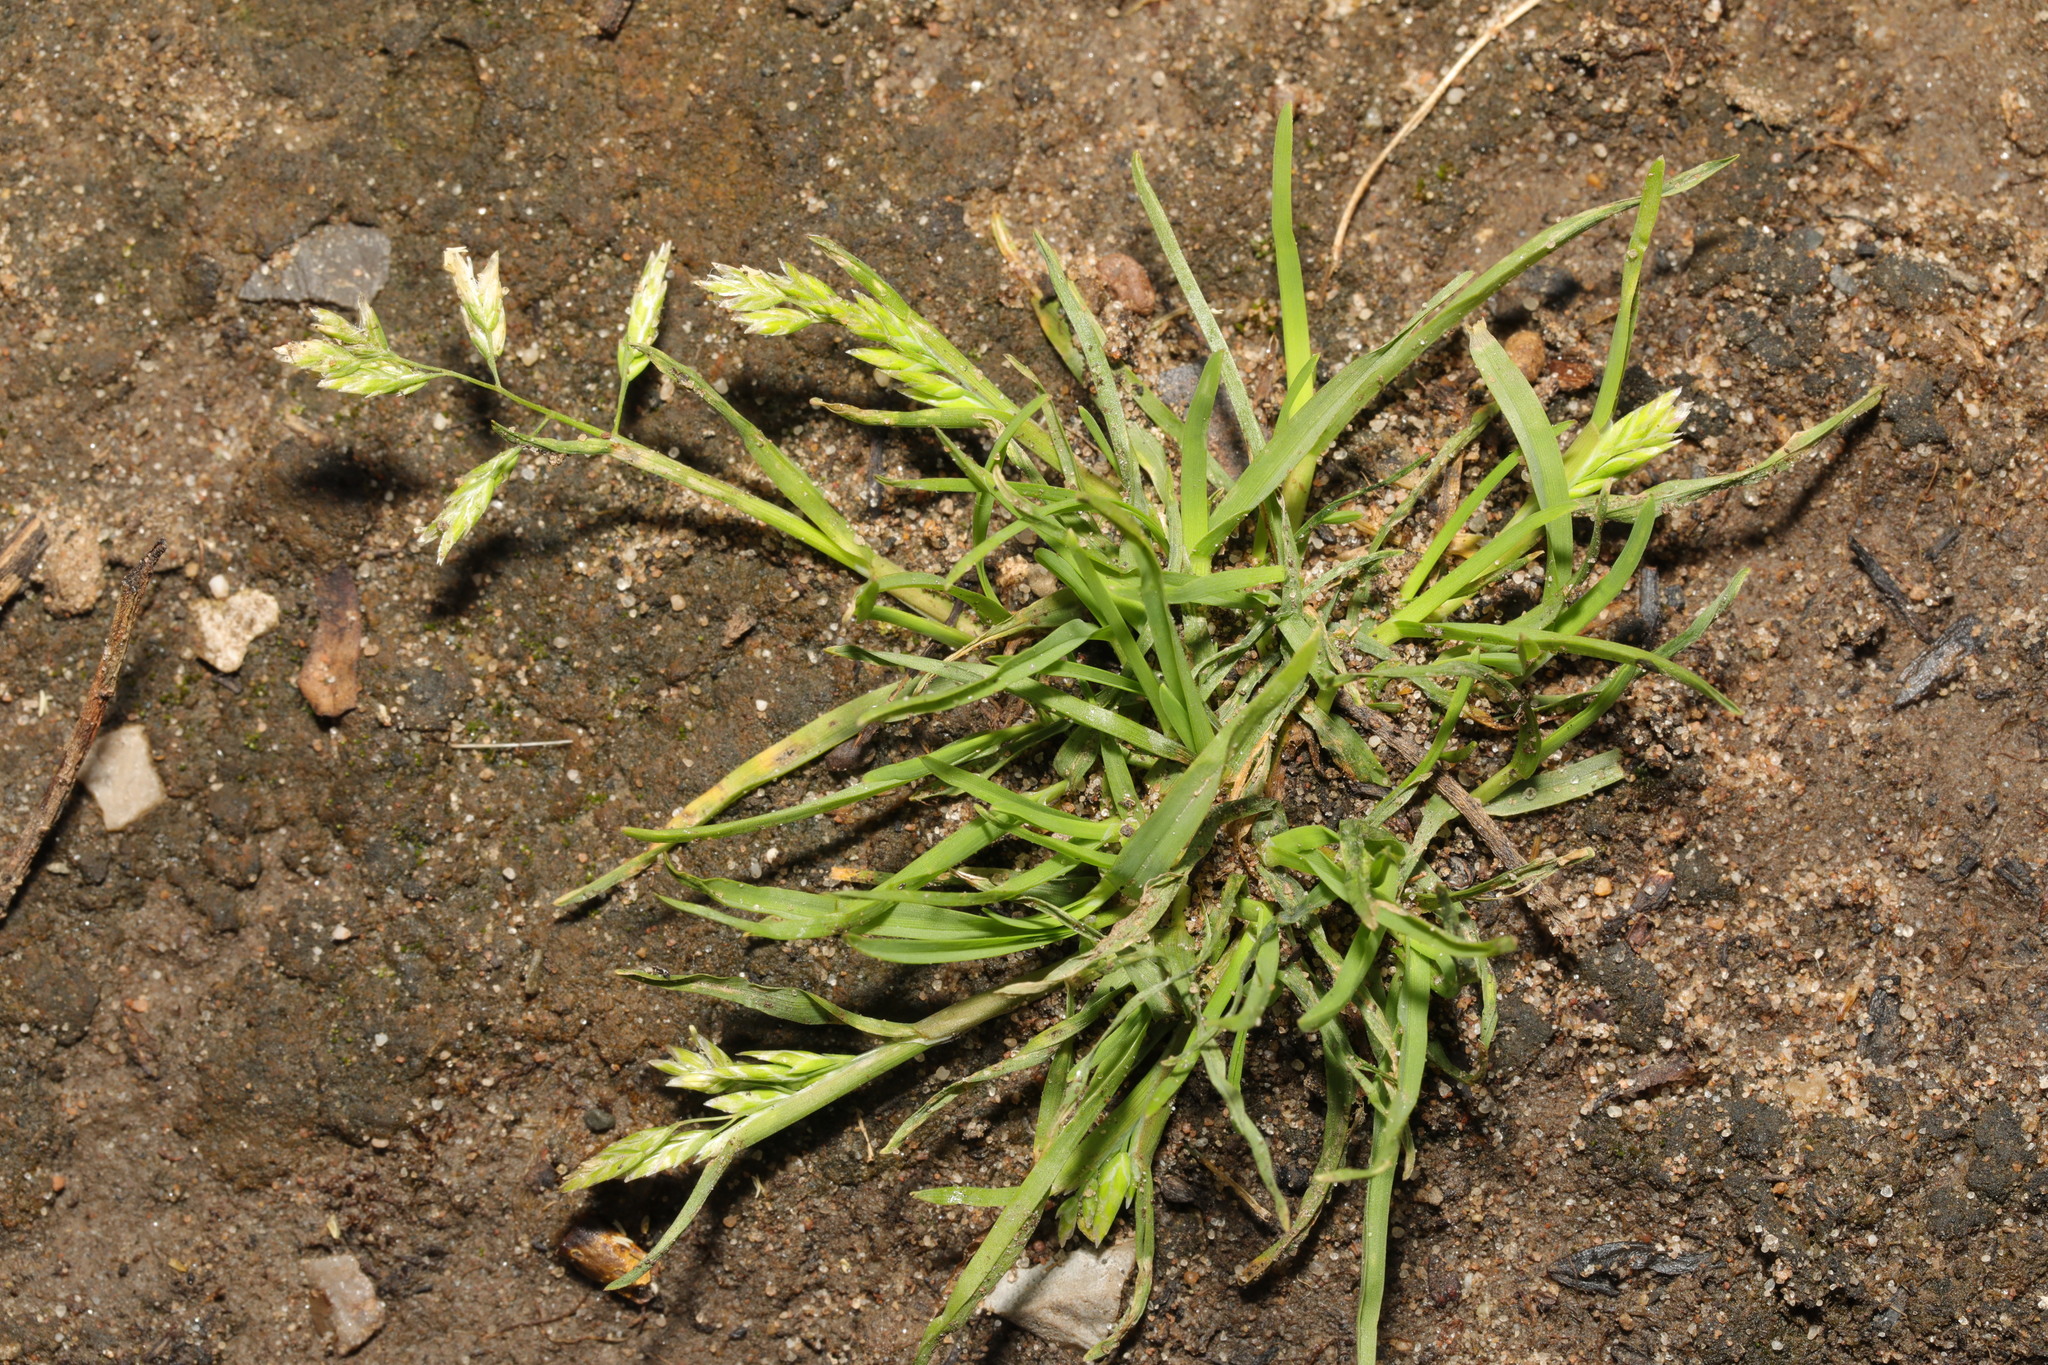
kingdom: Plantae
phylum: Tracheophyta
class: Liliopsida
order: Poales
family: Poaceae
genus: Poa
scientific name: Poa annua
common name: Annual bluegrass
